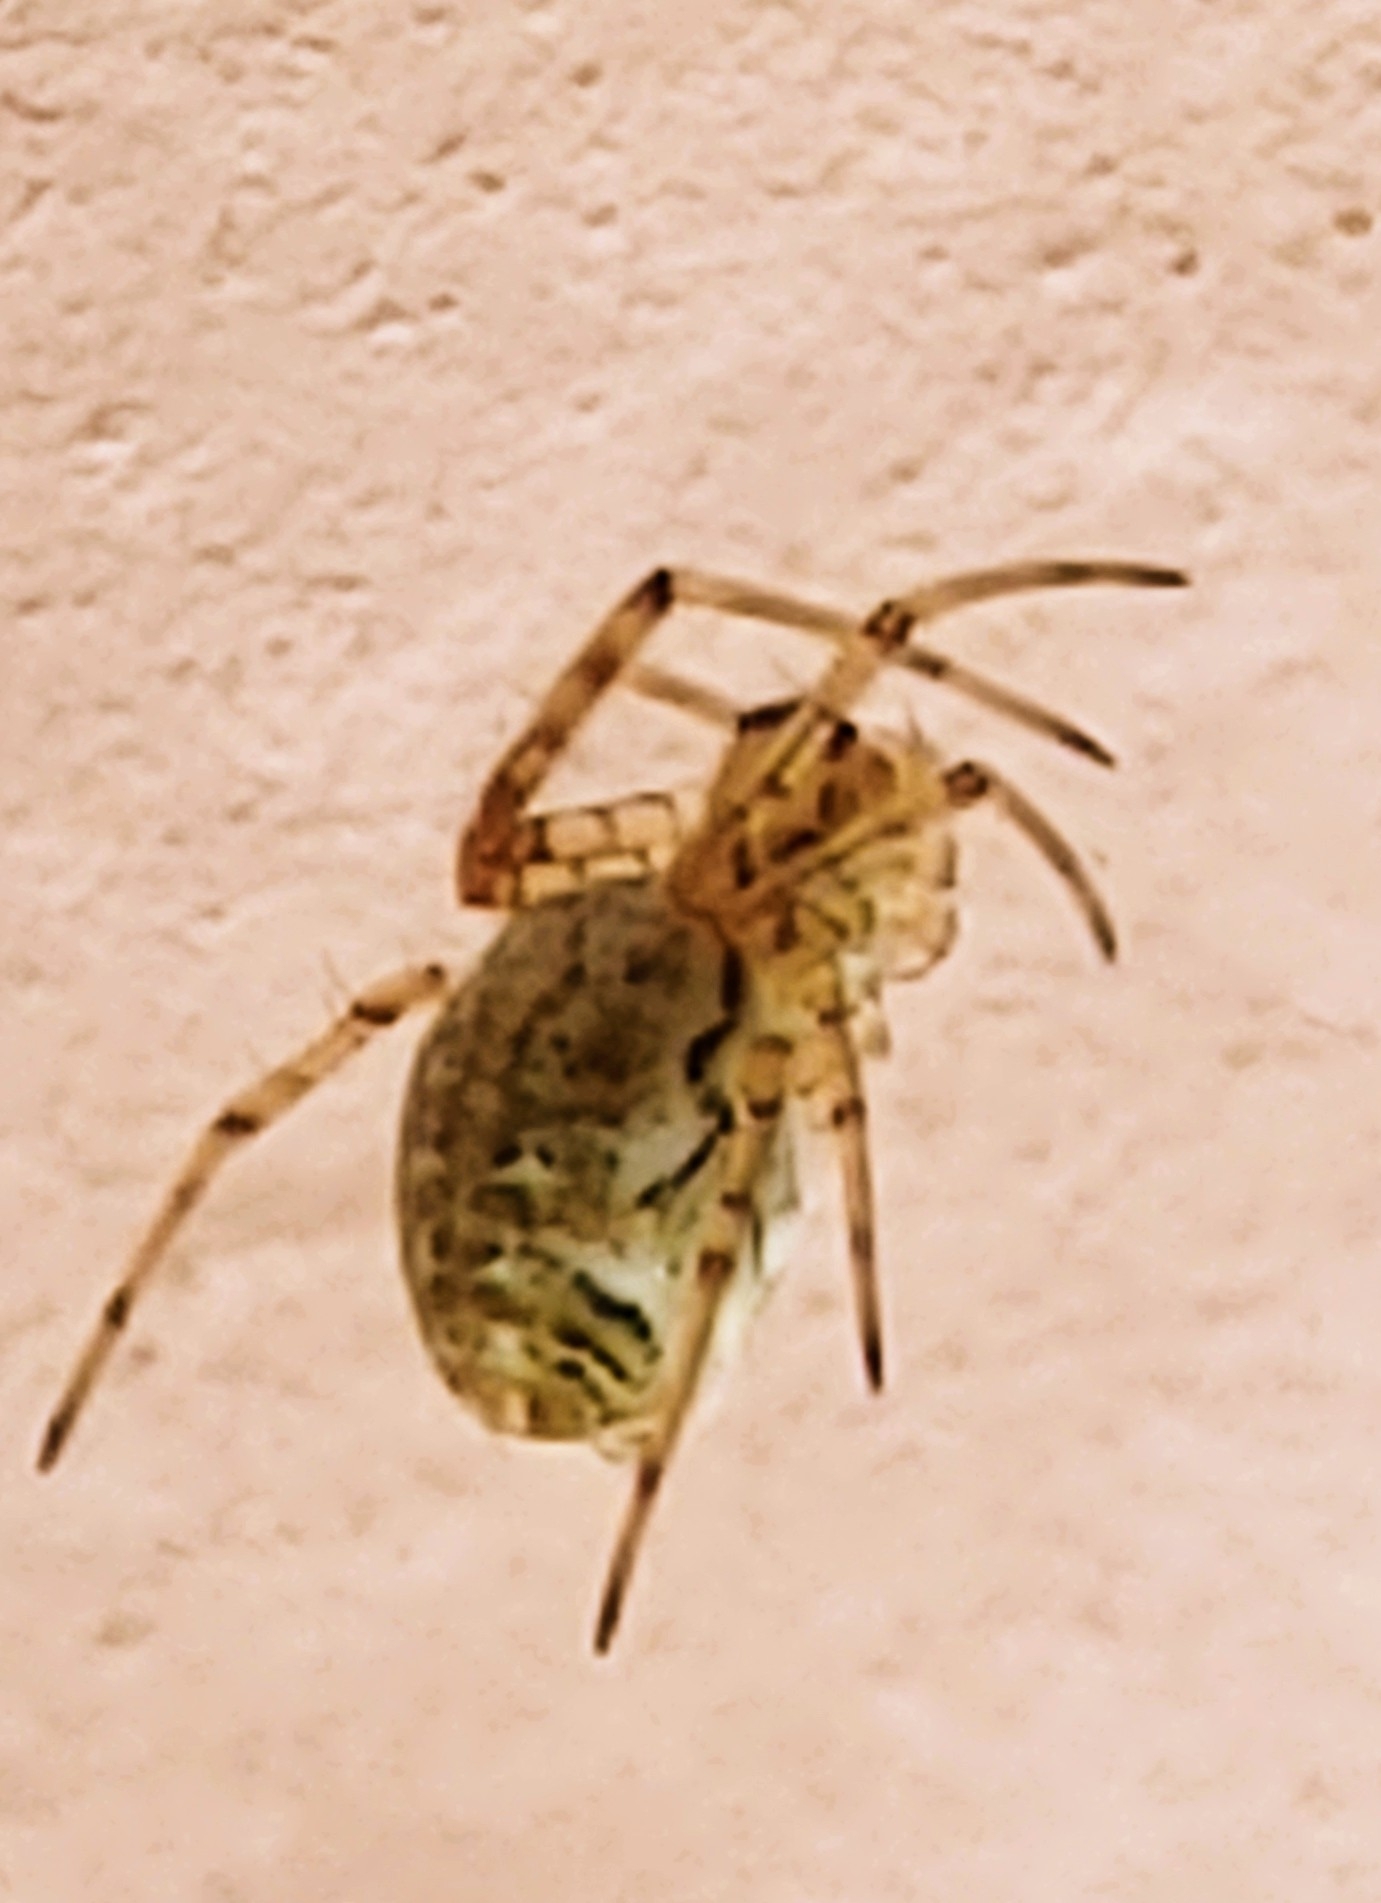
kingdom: Animalia
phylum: Arthropoda
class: Arachnida
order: Araneae
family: Araneidae
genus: Nephilingis
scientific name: Nephilingis cruentata
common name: African hermit spider
